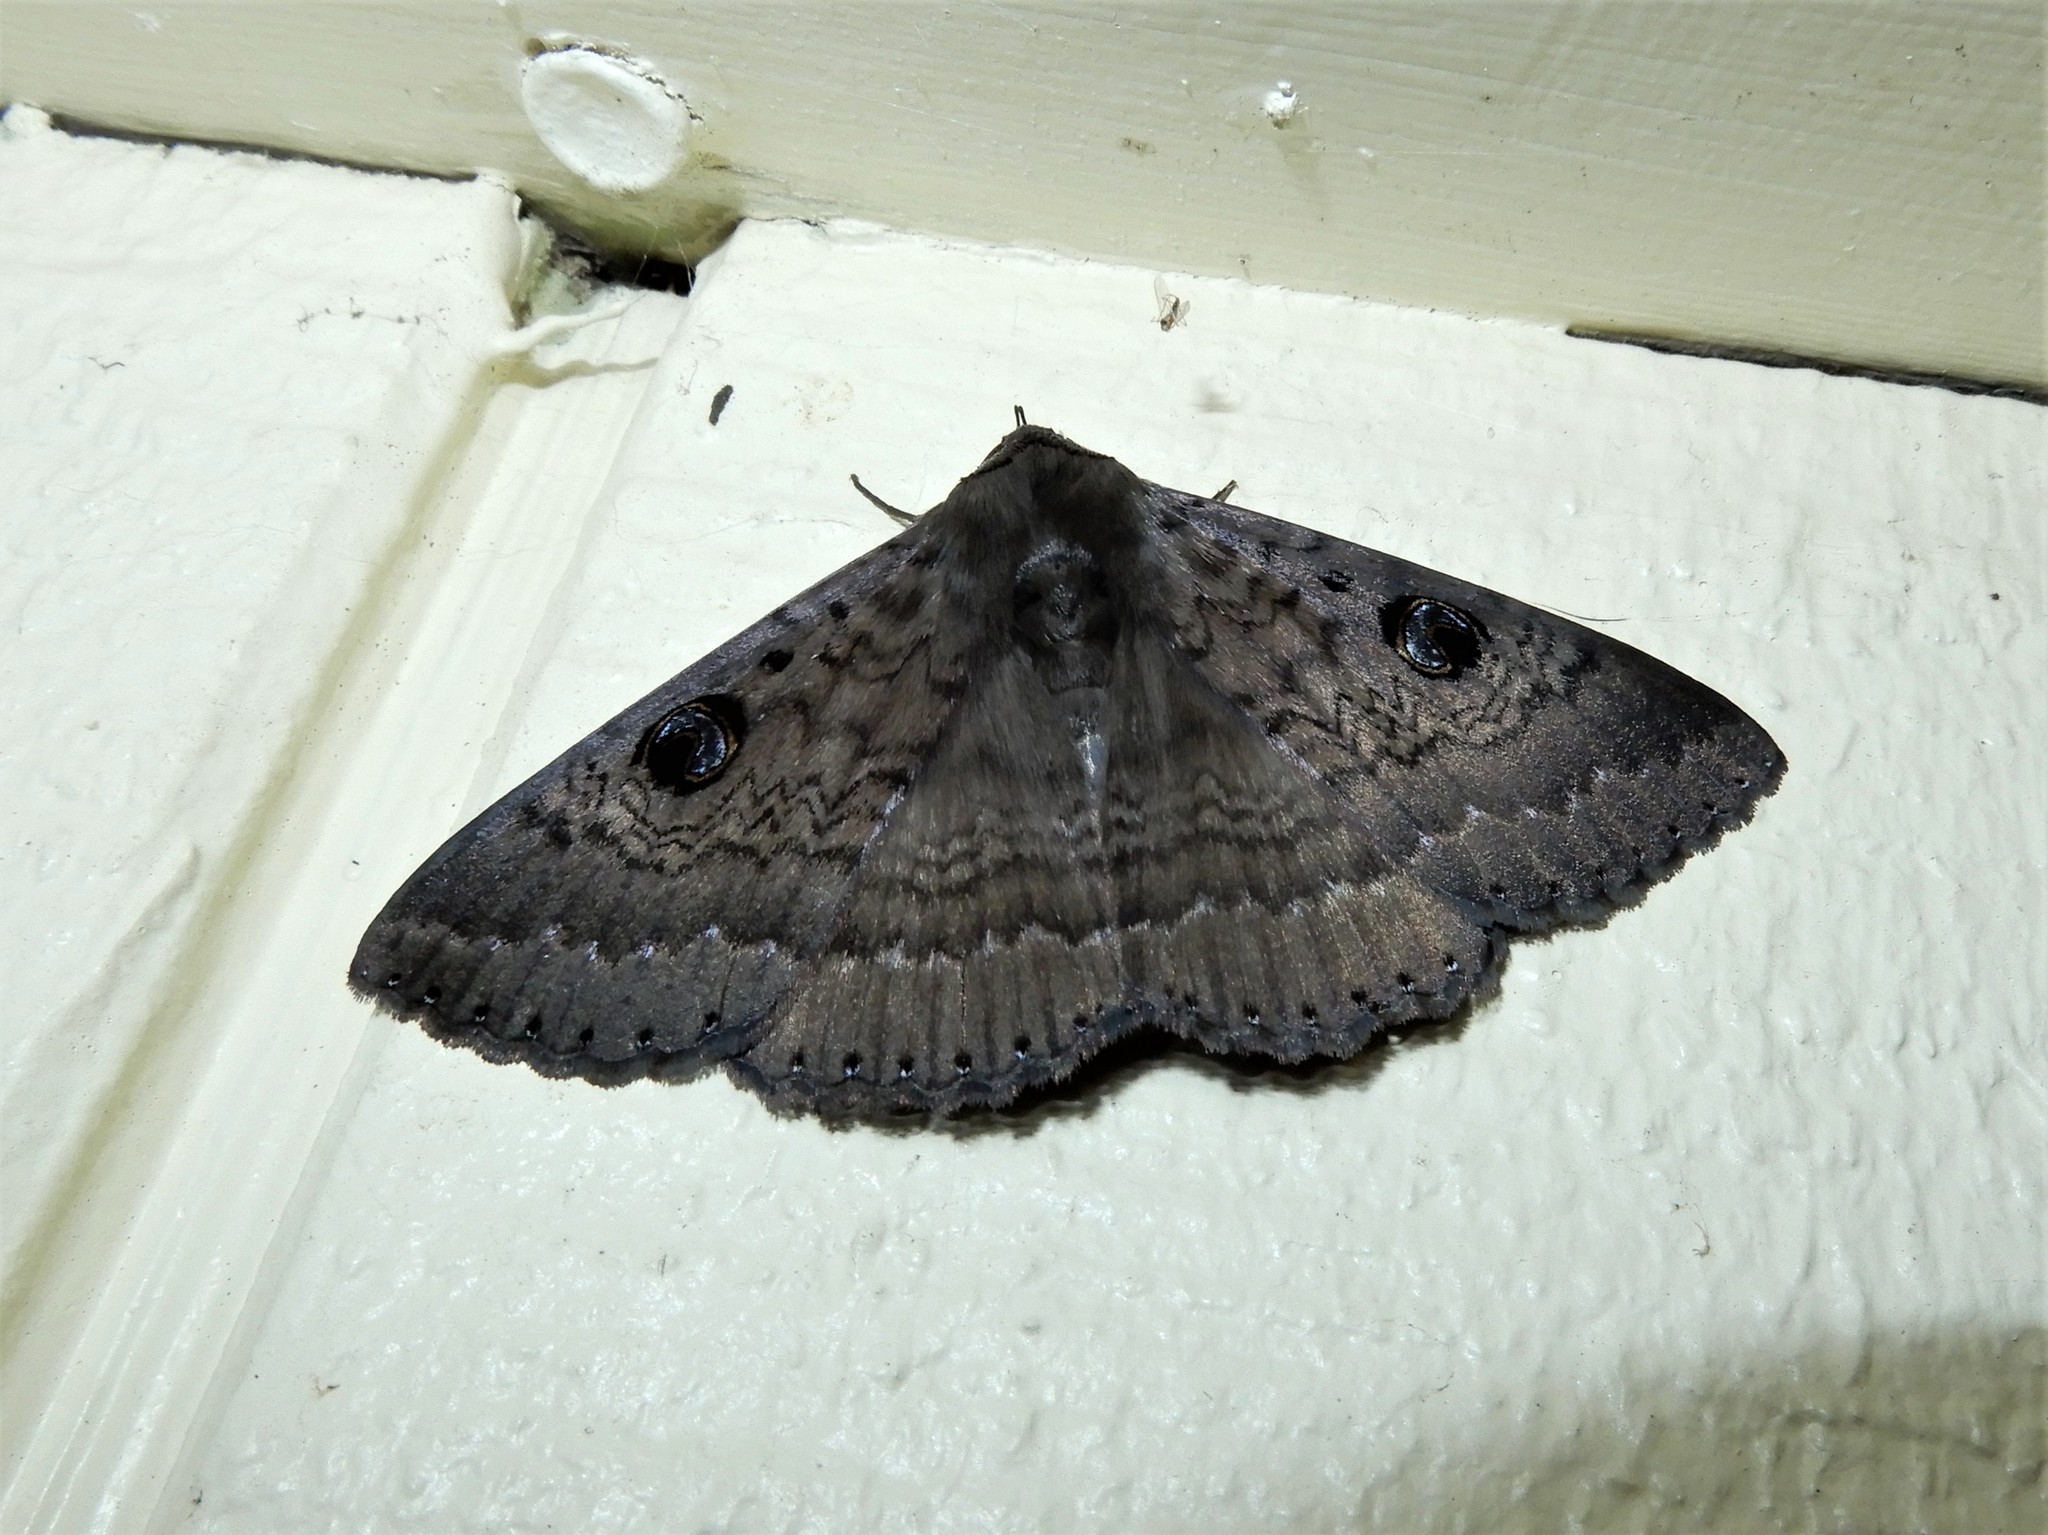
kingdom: Animalia
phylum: Arthropoda
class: Insecta
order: Lepidoptera
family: Erebidae
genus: Dasypodia
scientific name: Dasypodia cymatodes
